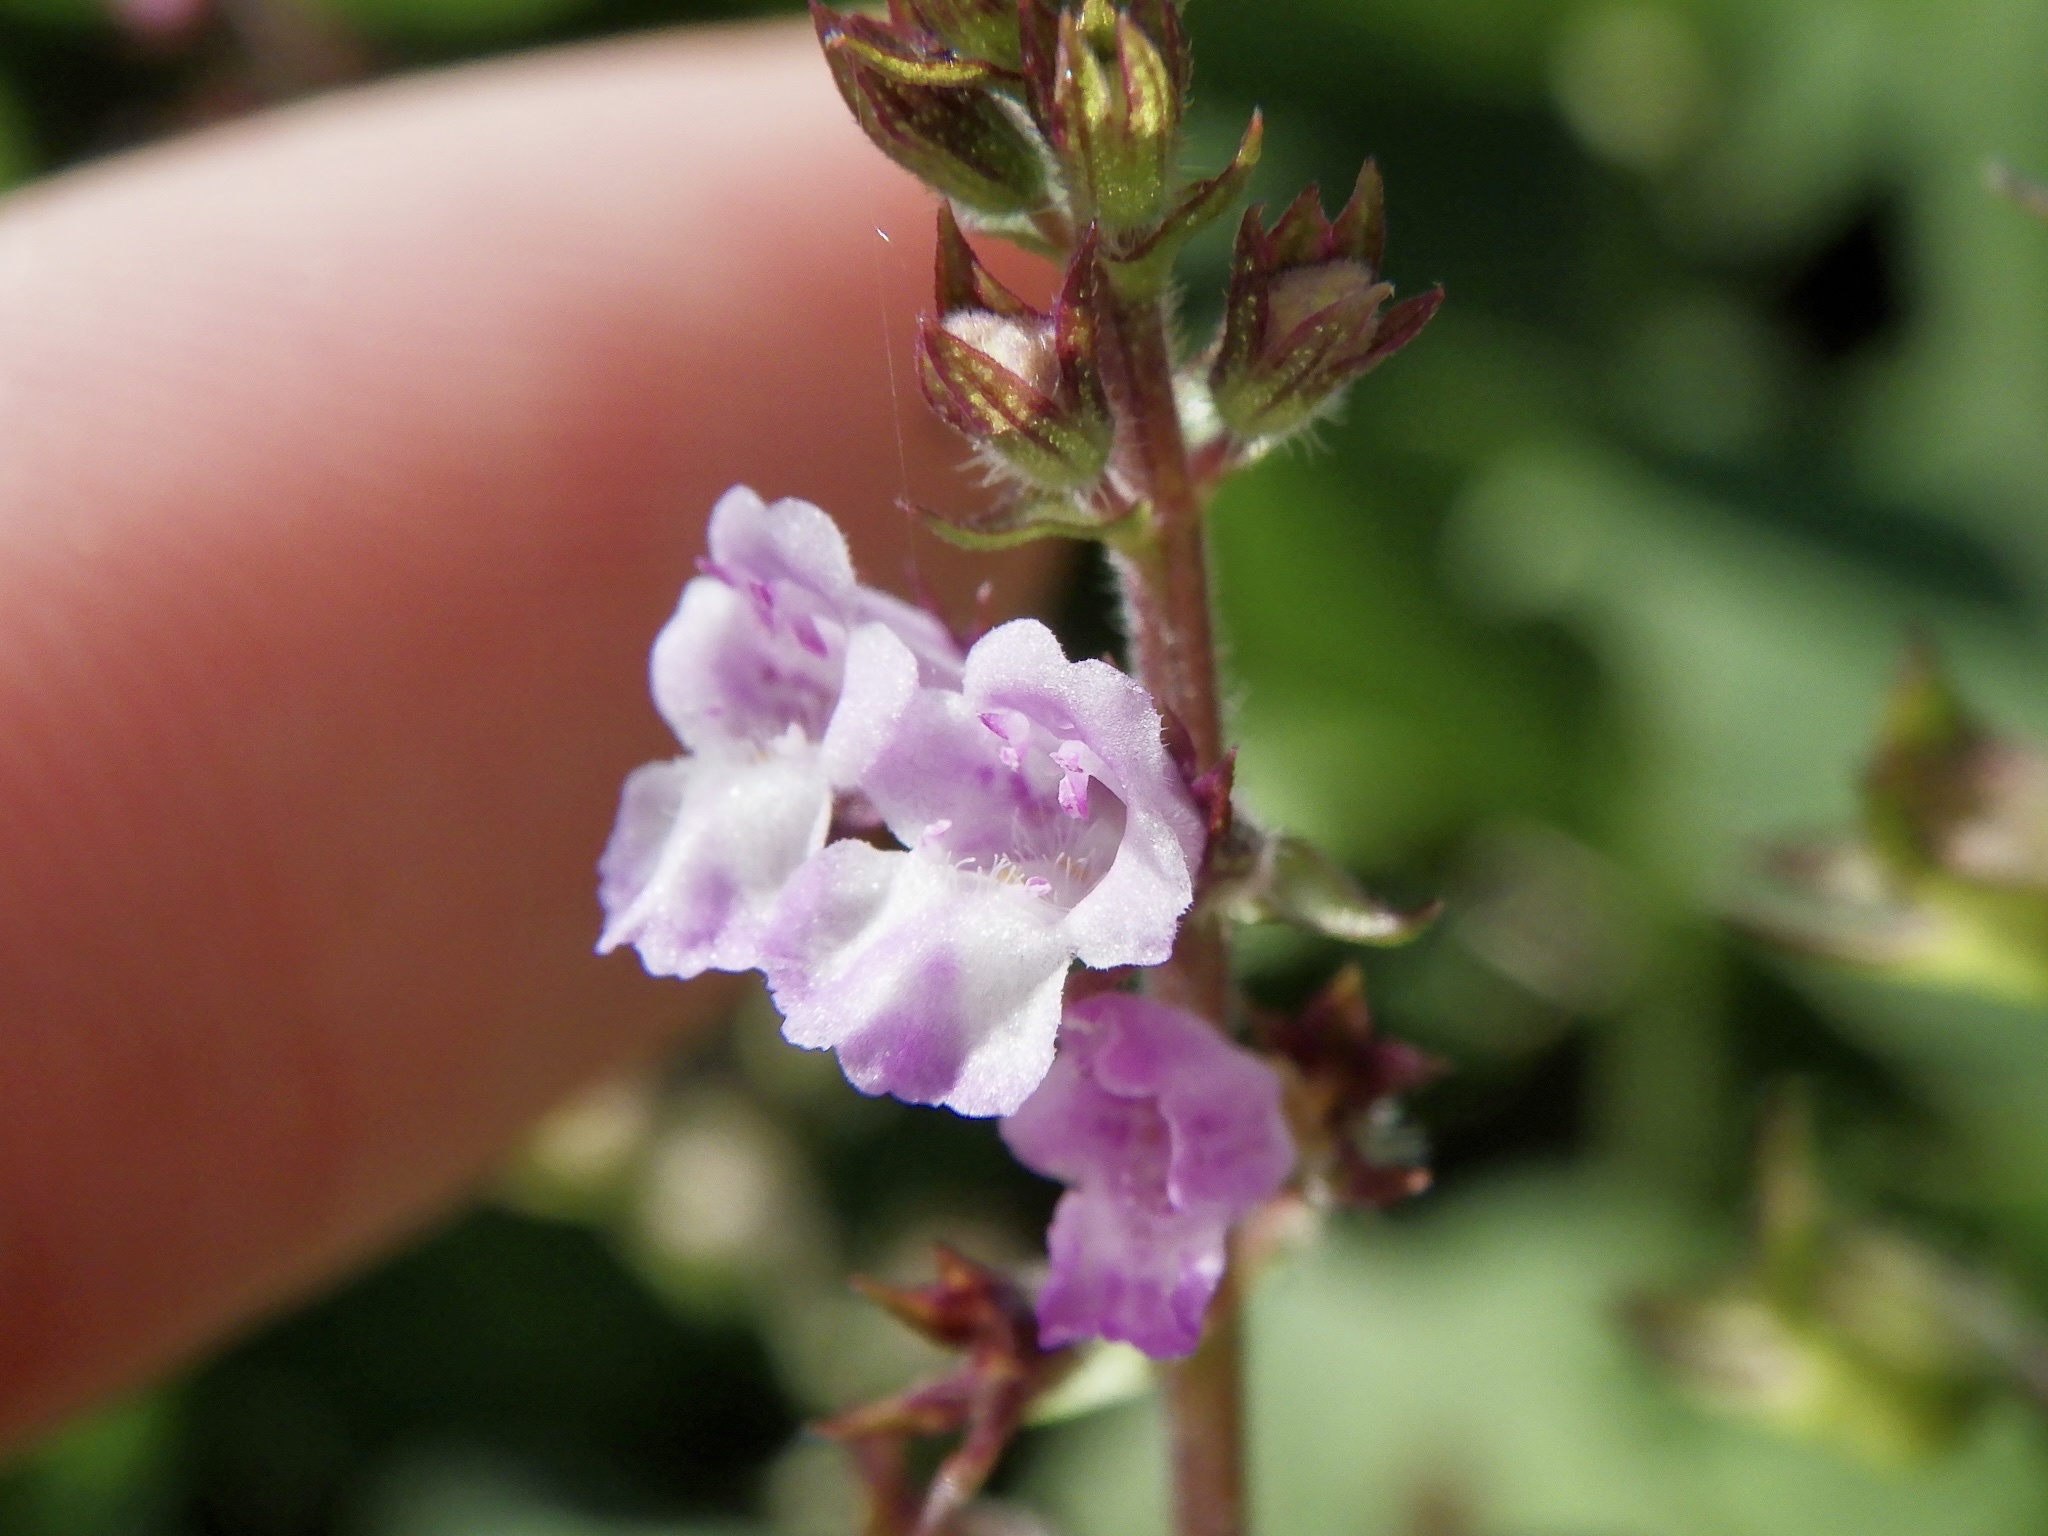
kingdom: Plantae
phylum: Tracheophyta
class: Magnoliopsida
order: Lamiales
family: Lamiaceae
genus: Mosla
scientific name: Mosla scabra
